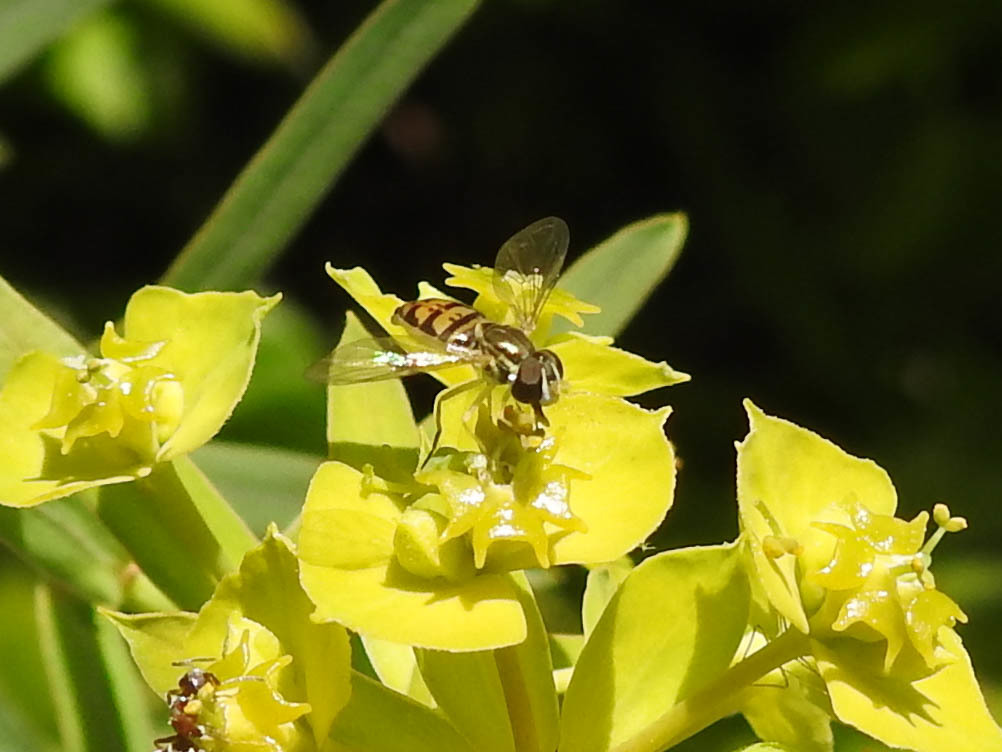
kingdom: Animalia
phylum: Arthropoda
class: Insecta
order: Diptera
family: Syrphidae
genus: Toxomerus
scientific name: Toxomerus marginatus
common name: Syrphid fly
